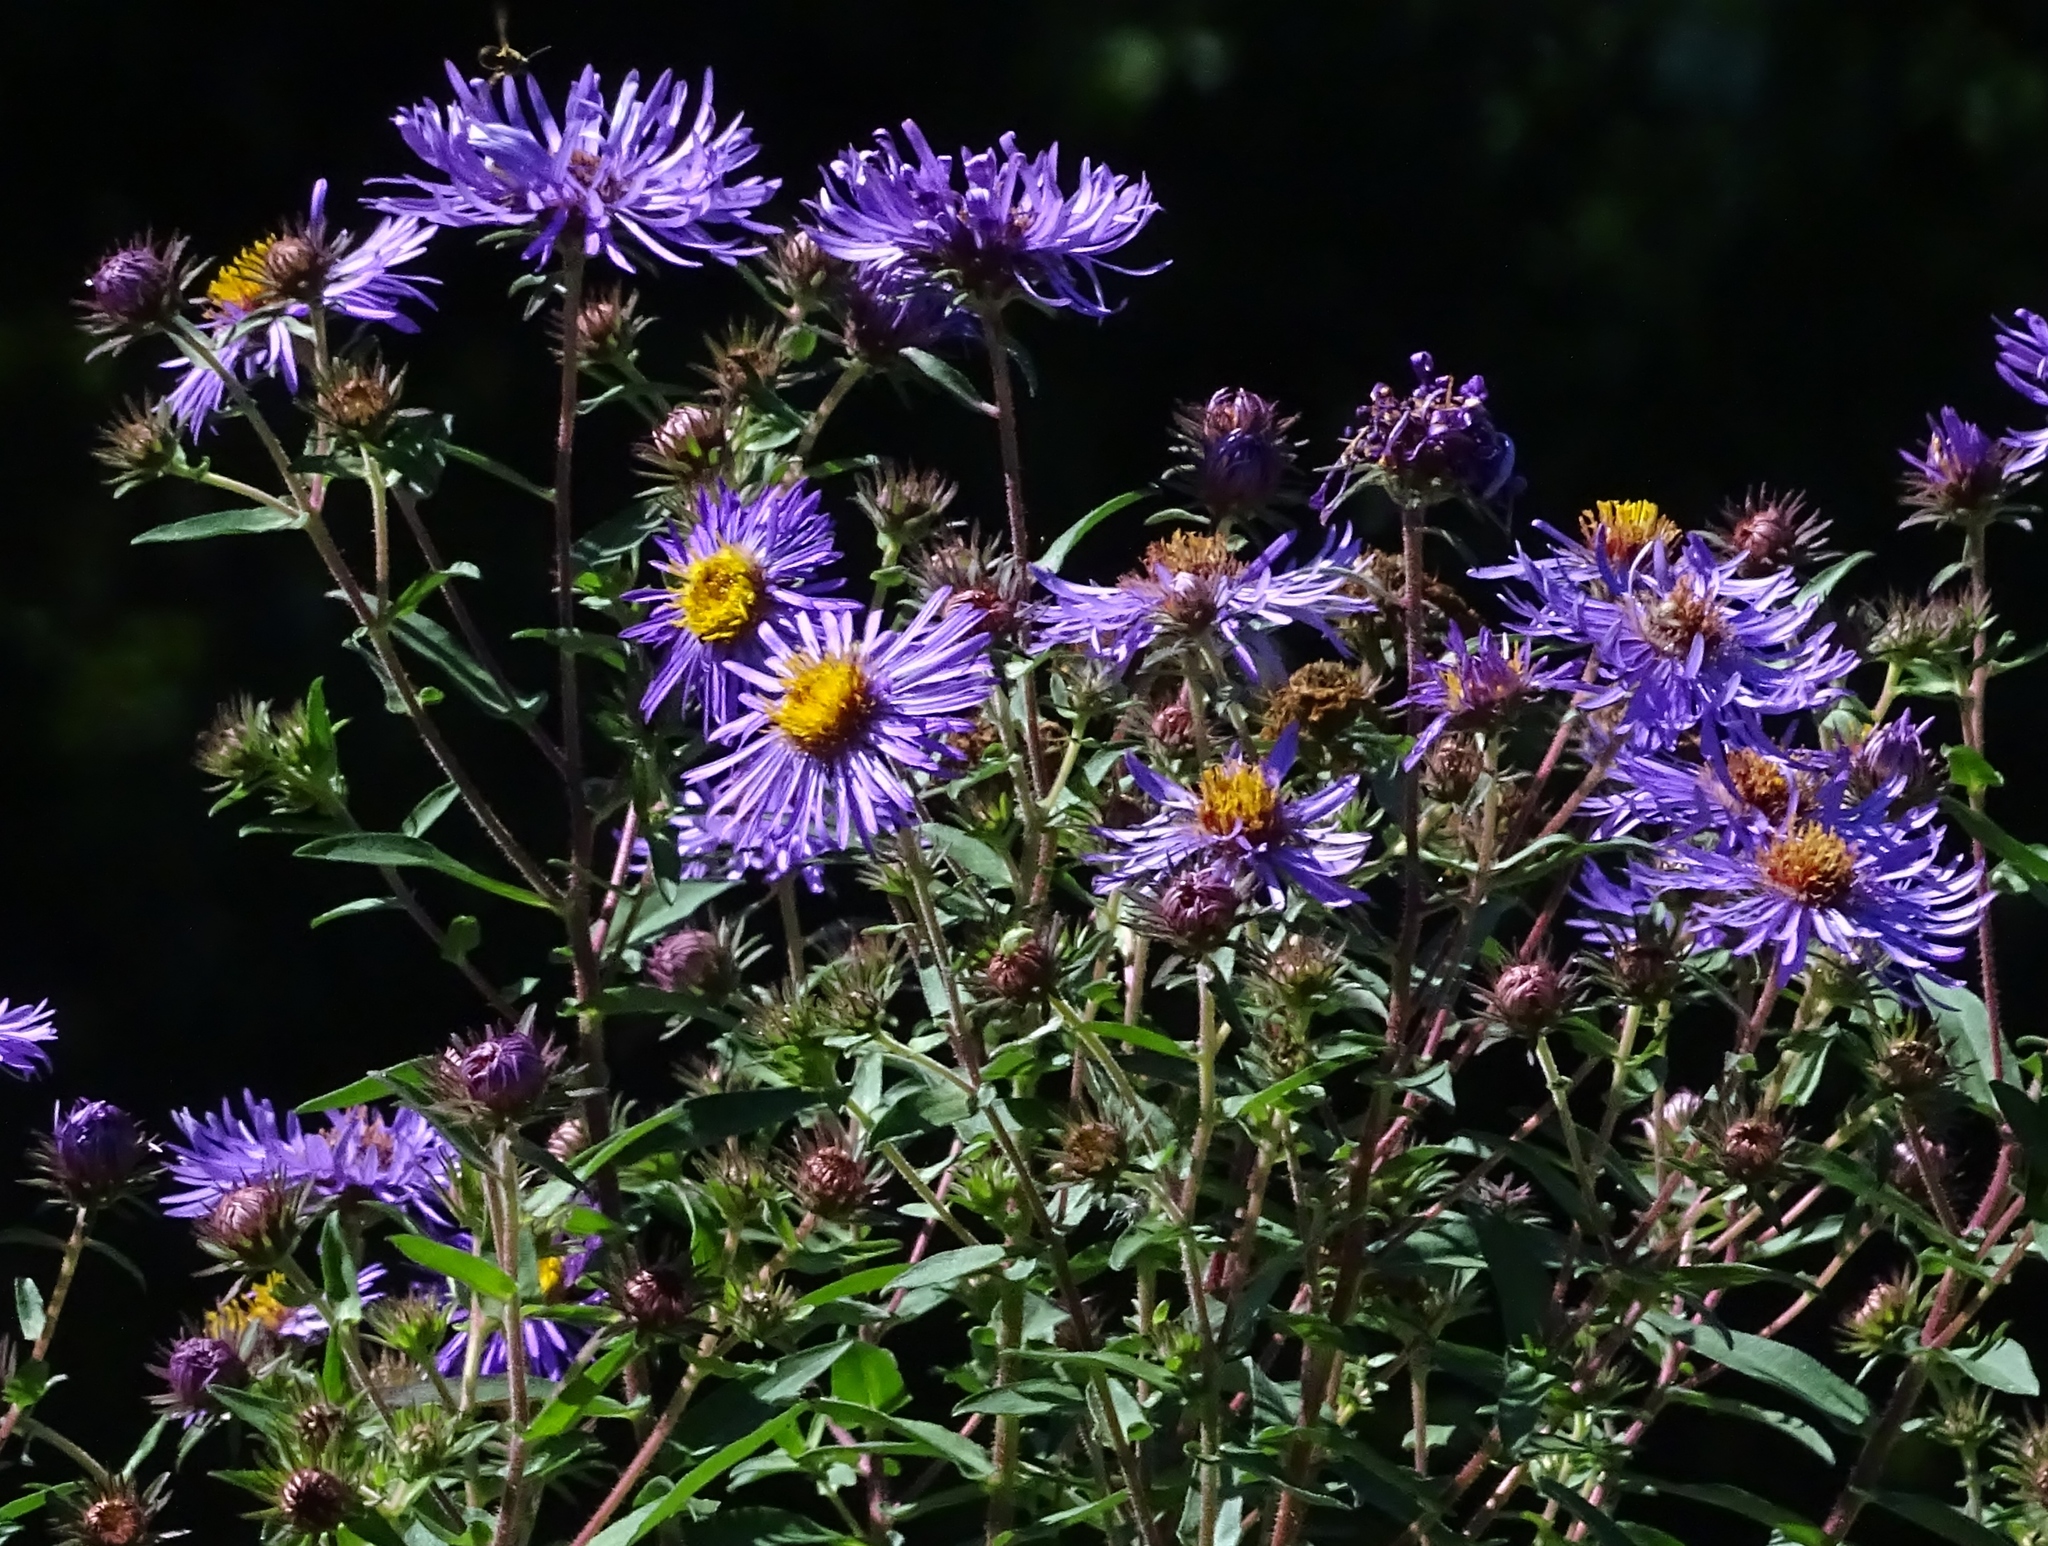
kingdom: Plantae
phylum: Tracheophyta
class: Magnoliopsida
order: Asterales
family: Asteraceae
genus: Symphyotrichum
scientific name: Symphyotrichum novae-angliae
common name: Michaelmas daisy
